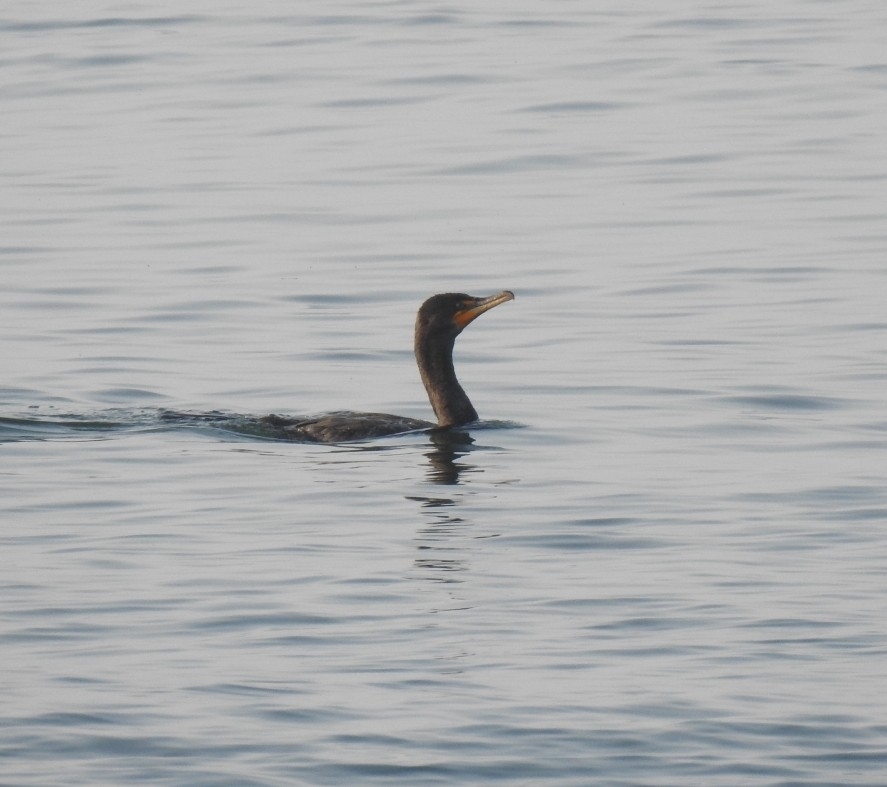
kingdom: Animalia
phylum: Chordata
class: Aves
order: Suliformes
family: Phalacrocoracidae
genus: Phalacrocorax
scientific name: Phalacrocorax auritus
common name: Double-crested cormorant
